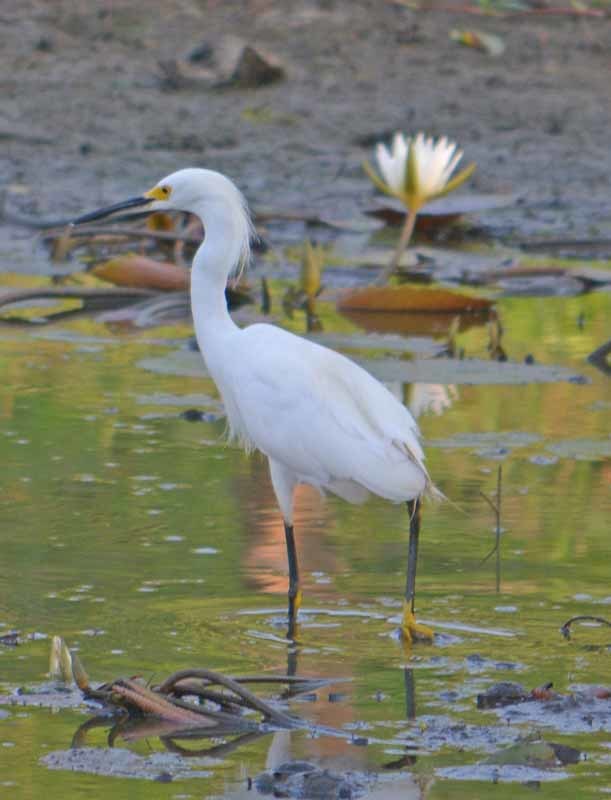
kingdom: Animalia
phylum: Chordata
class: Aves
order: Pelecaniformes
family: Ardeidae
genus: Egretta
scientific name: Egretta thula
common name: Snowy egret
